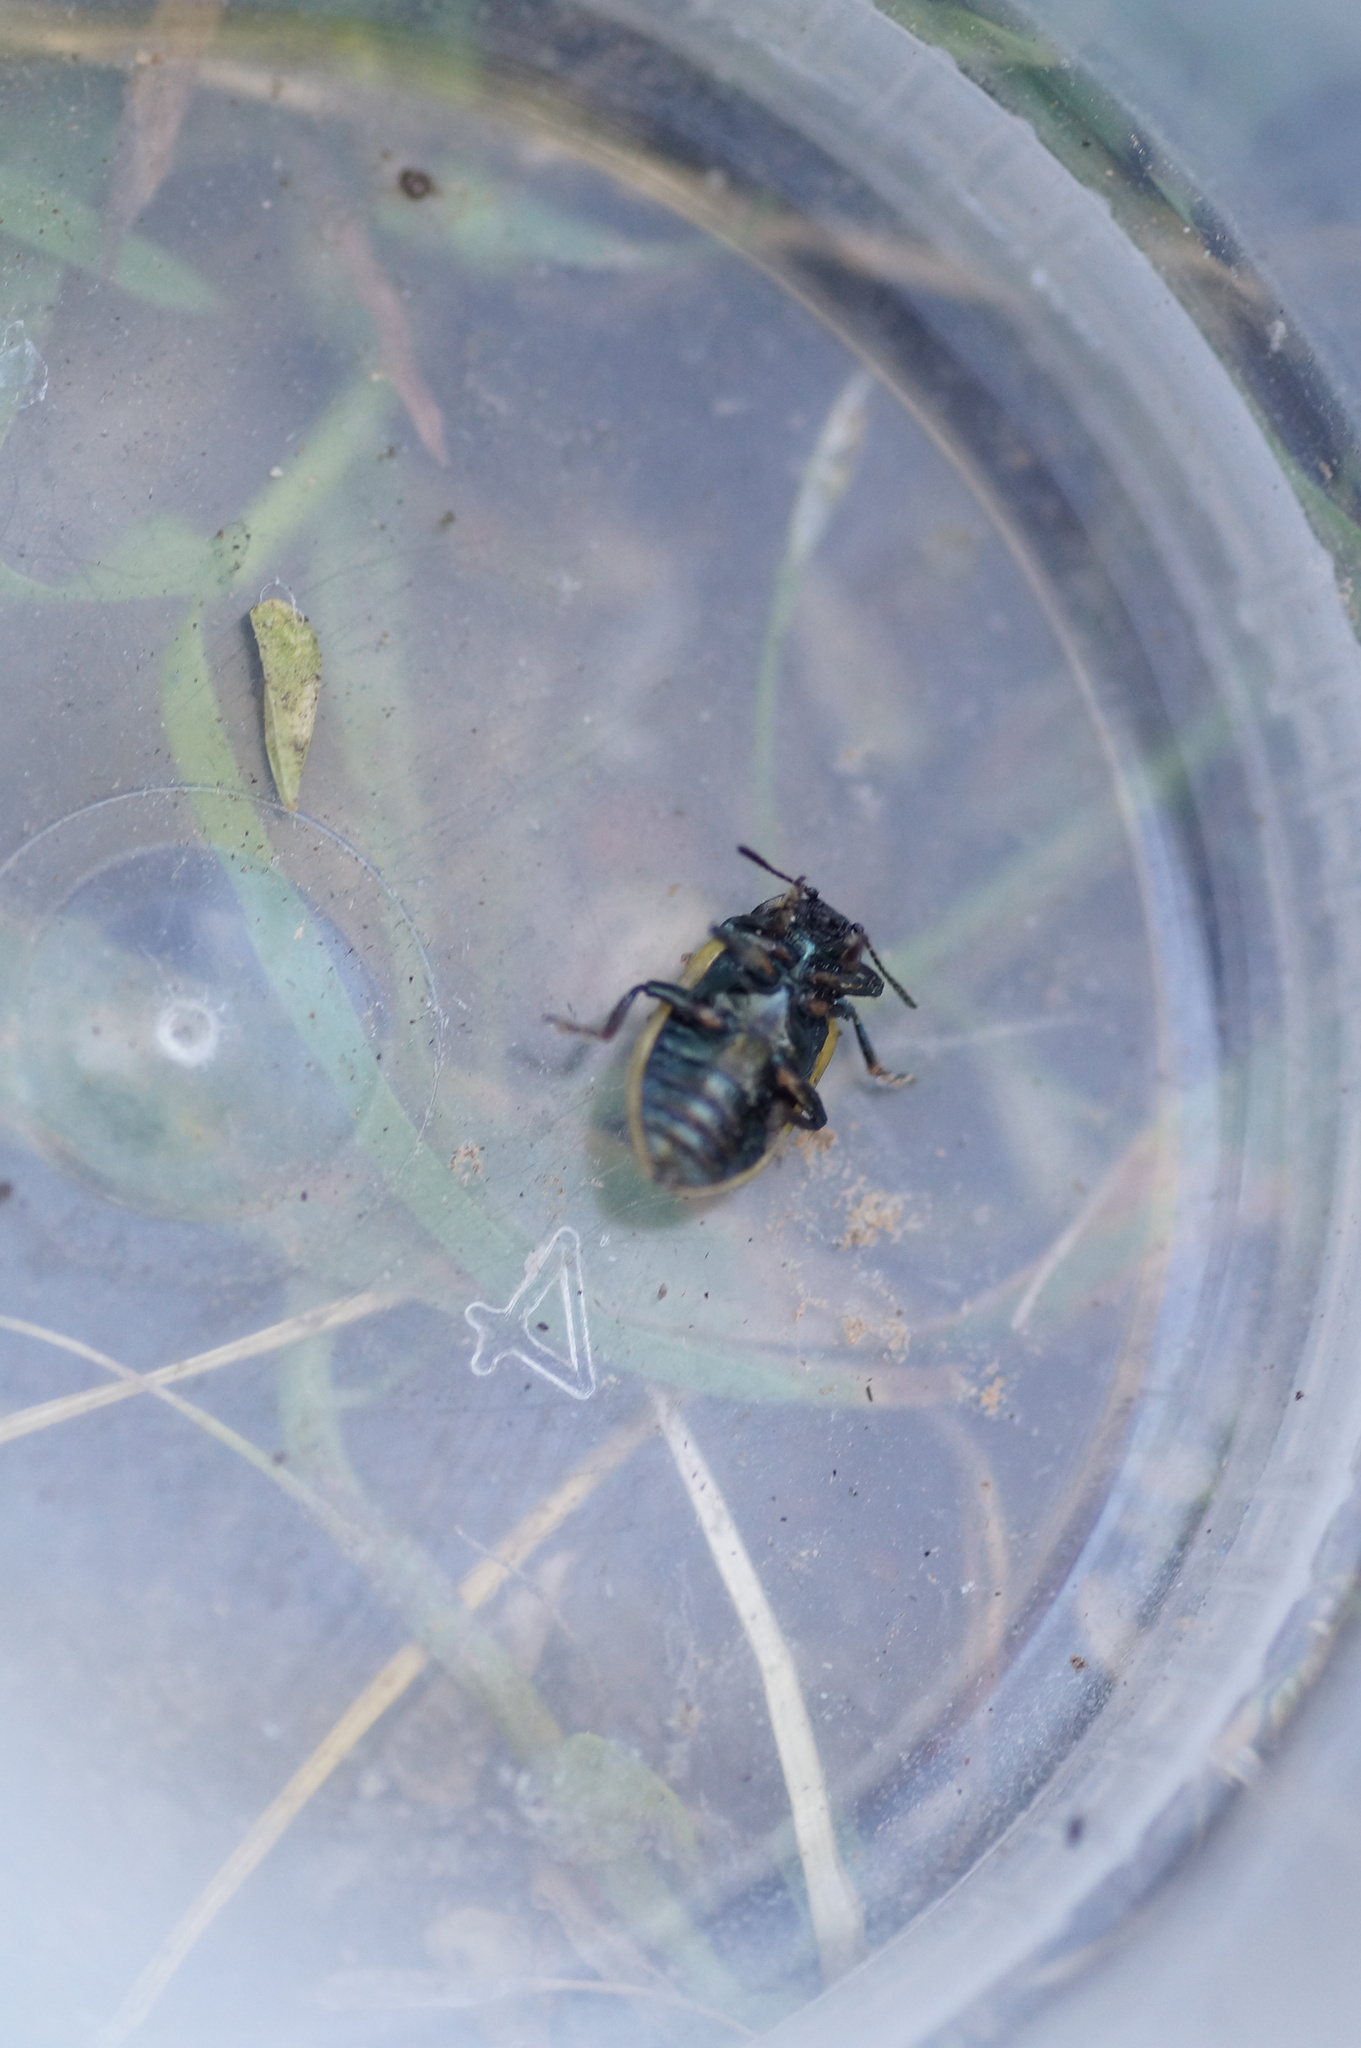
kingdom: Animalia
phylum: Arthropoda
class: Insecta
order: Coleoptera
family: Chrysomelidae
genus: Chrysomela
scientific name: Chrysomela vigintipunctata
